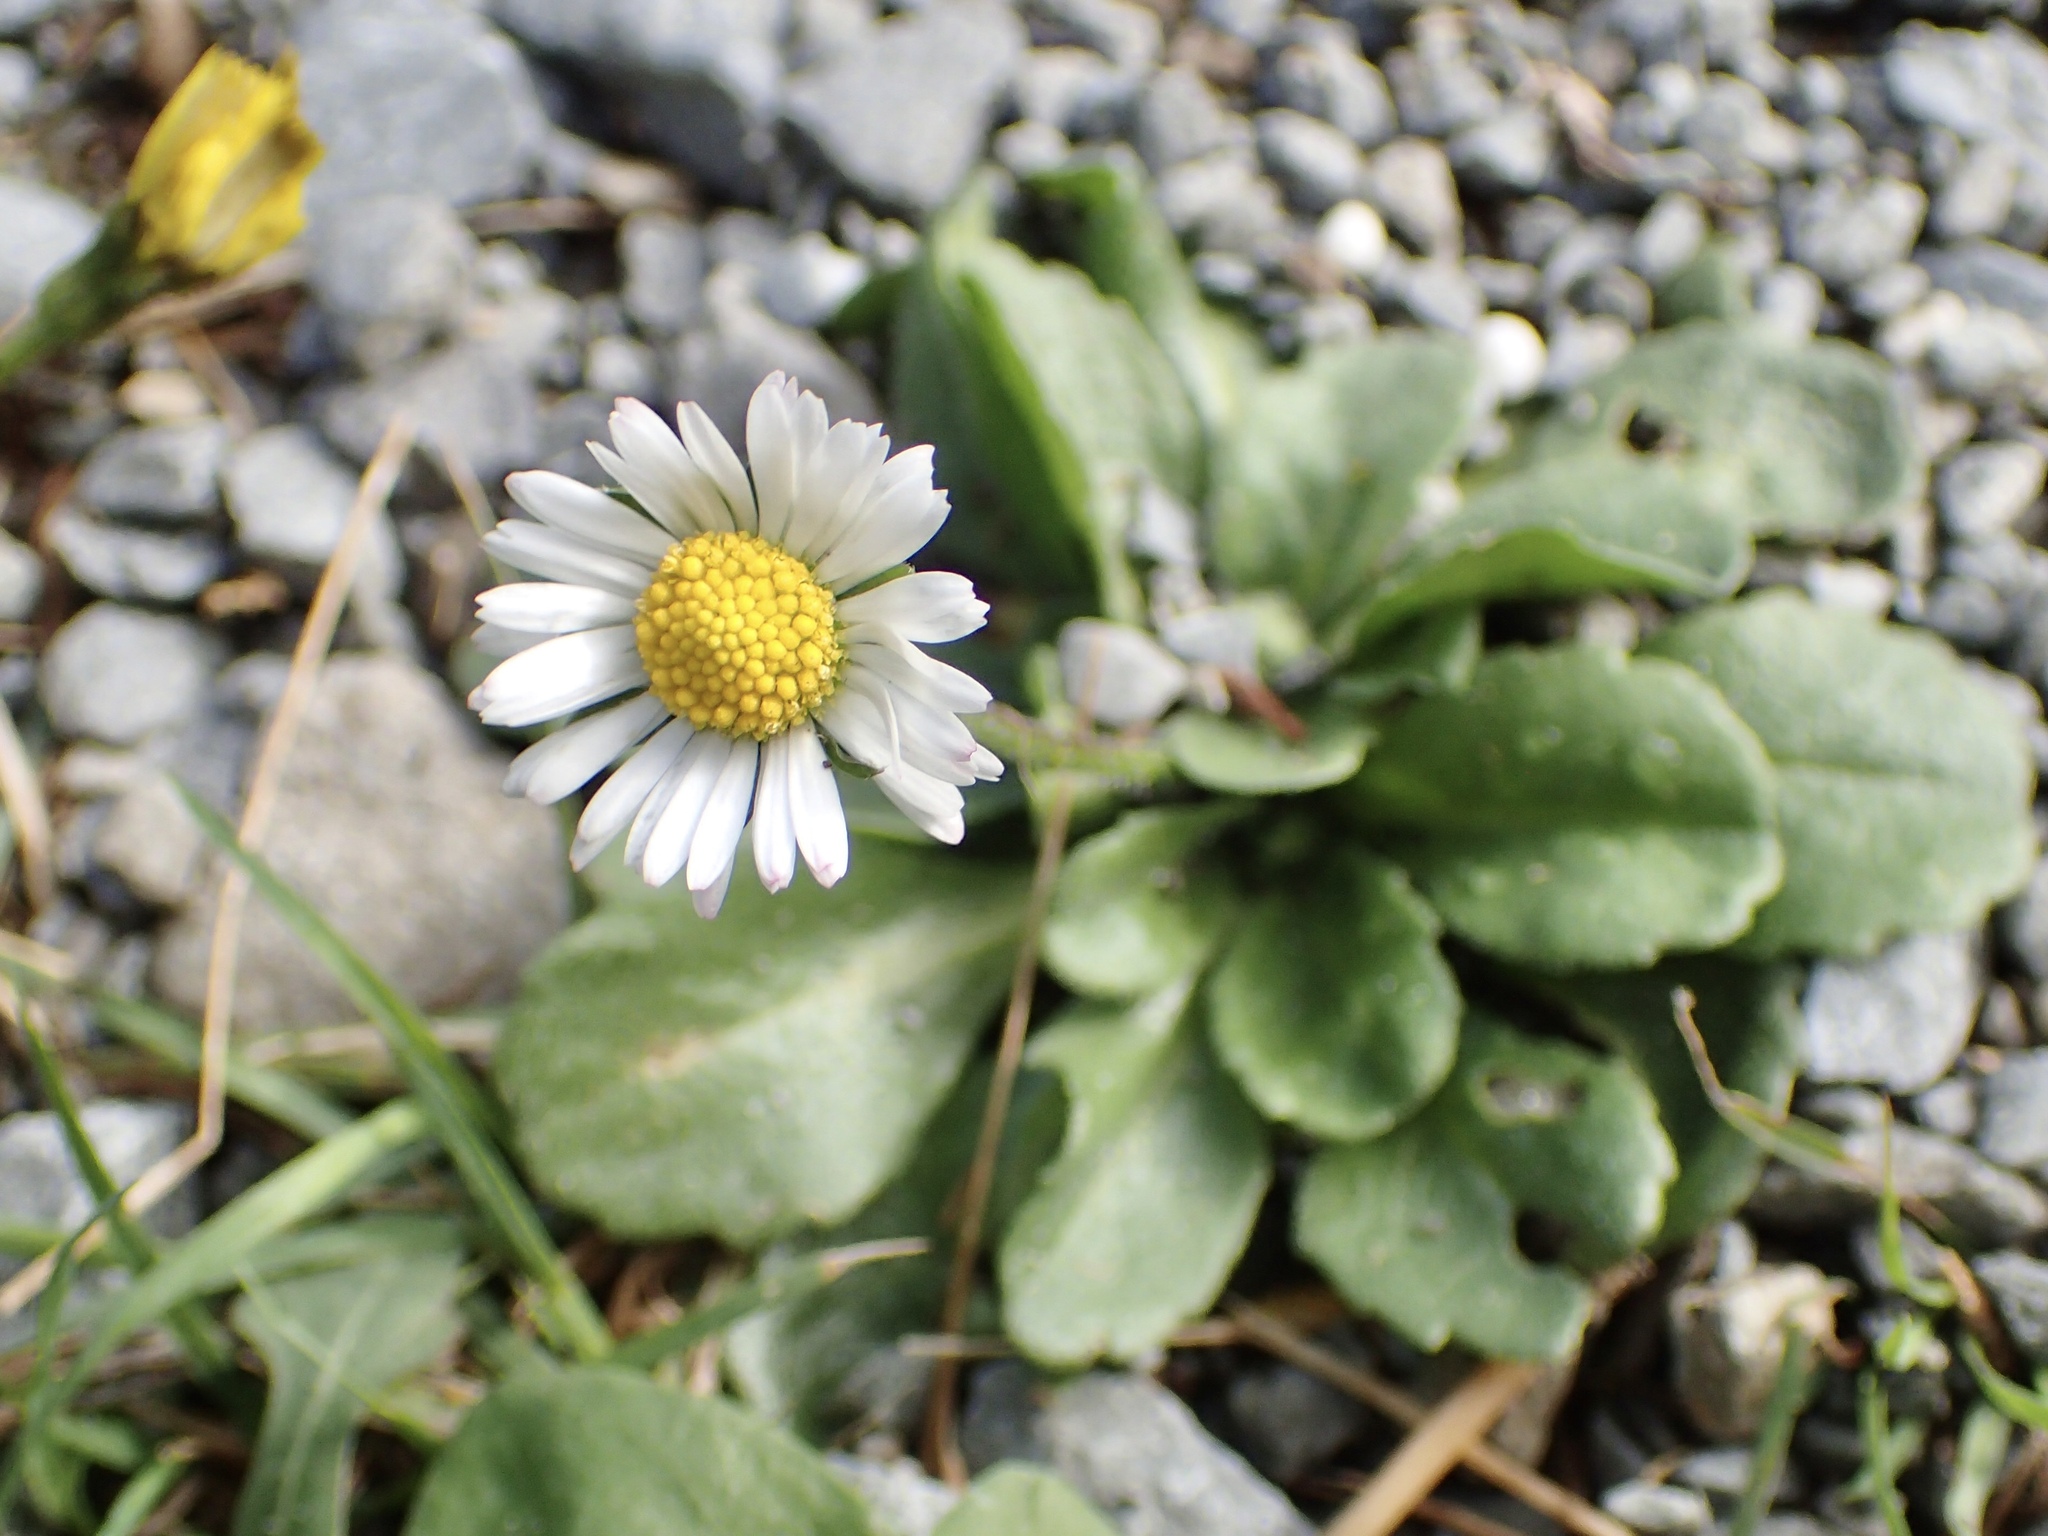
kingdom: Plantae
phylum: Tracheophyta
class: Magnoliopsida
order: Asterales
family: Asteraceae
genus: Bellis
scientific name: Bellis perennis
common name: Lawndaisy
